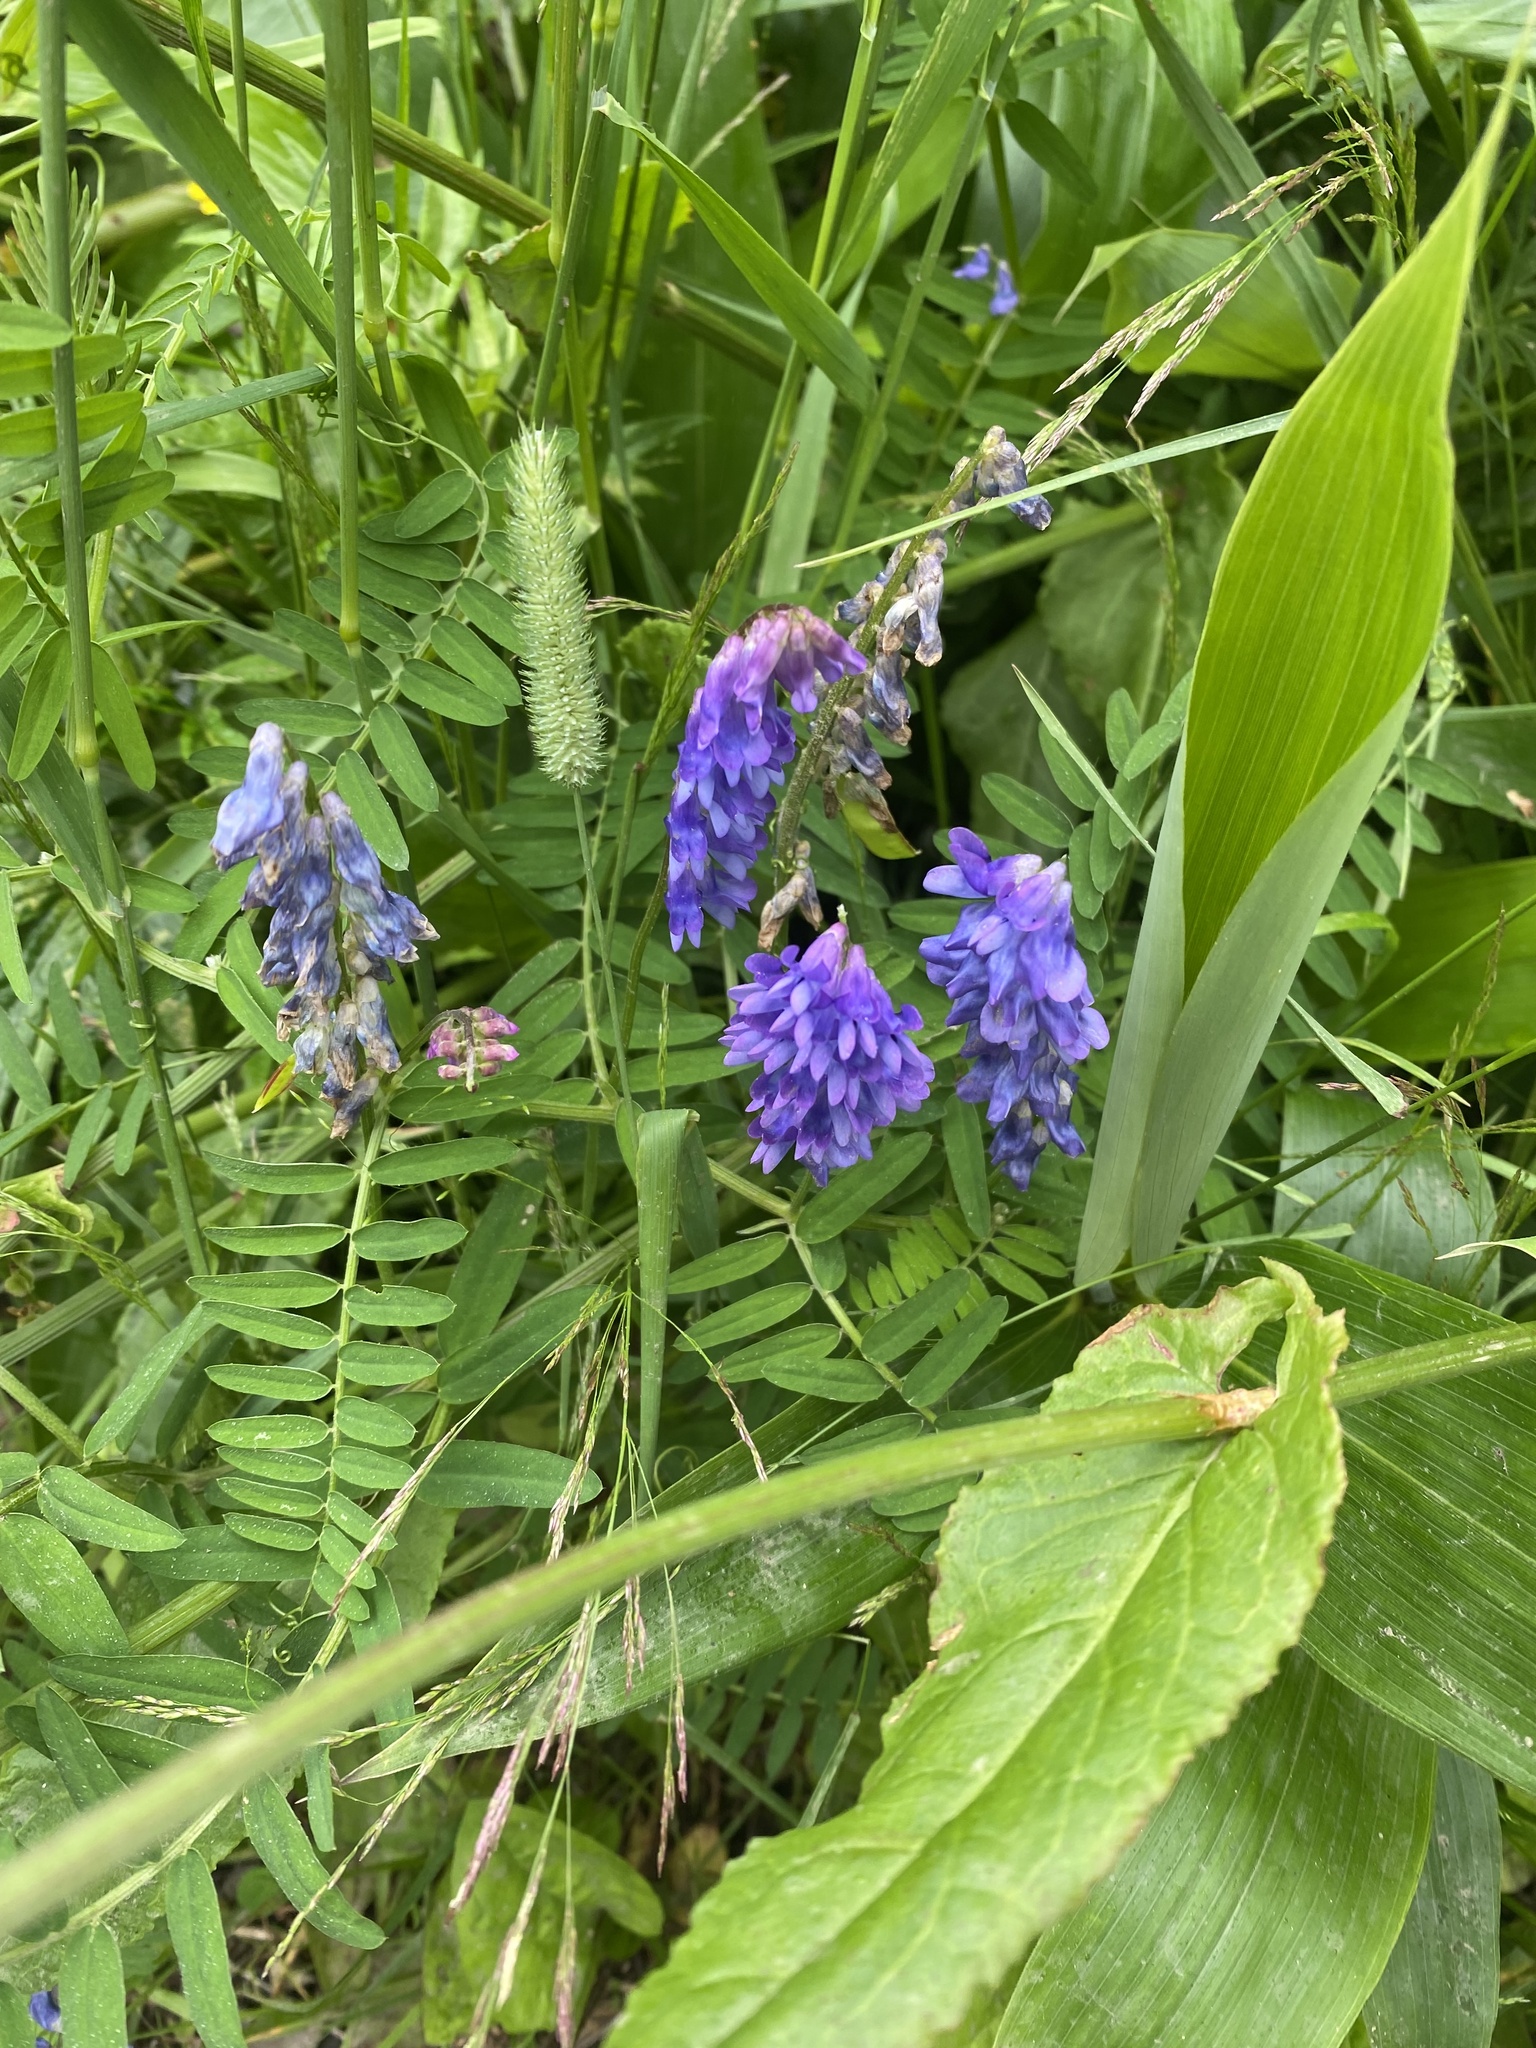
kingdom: Plantae
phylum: Tracheophyta
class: Magnoliopsida
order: Fabales
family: Fabaceae
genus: Vicia
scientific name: Vicia cracca
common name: Bird vetch
